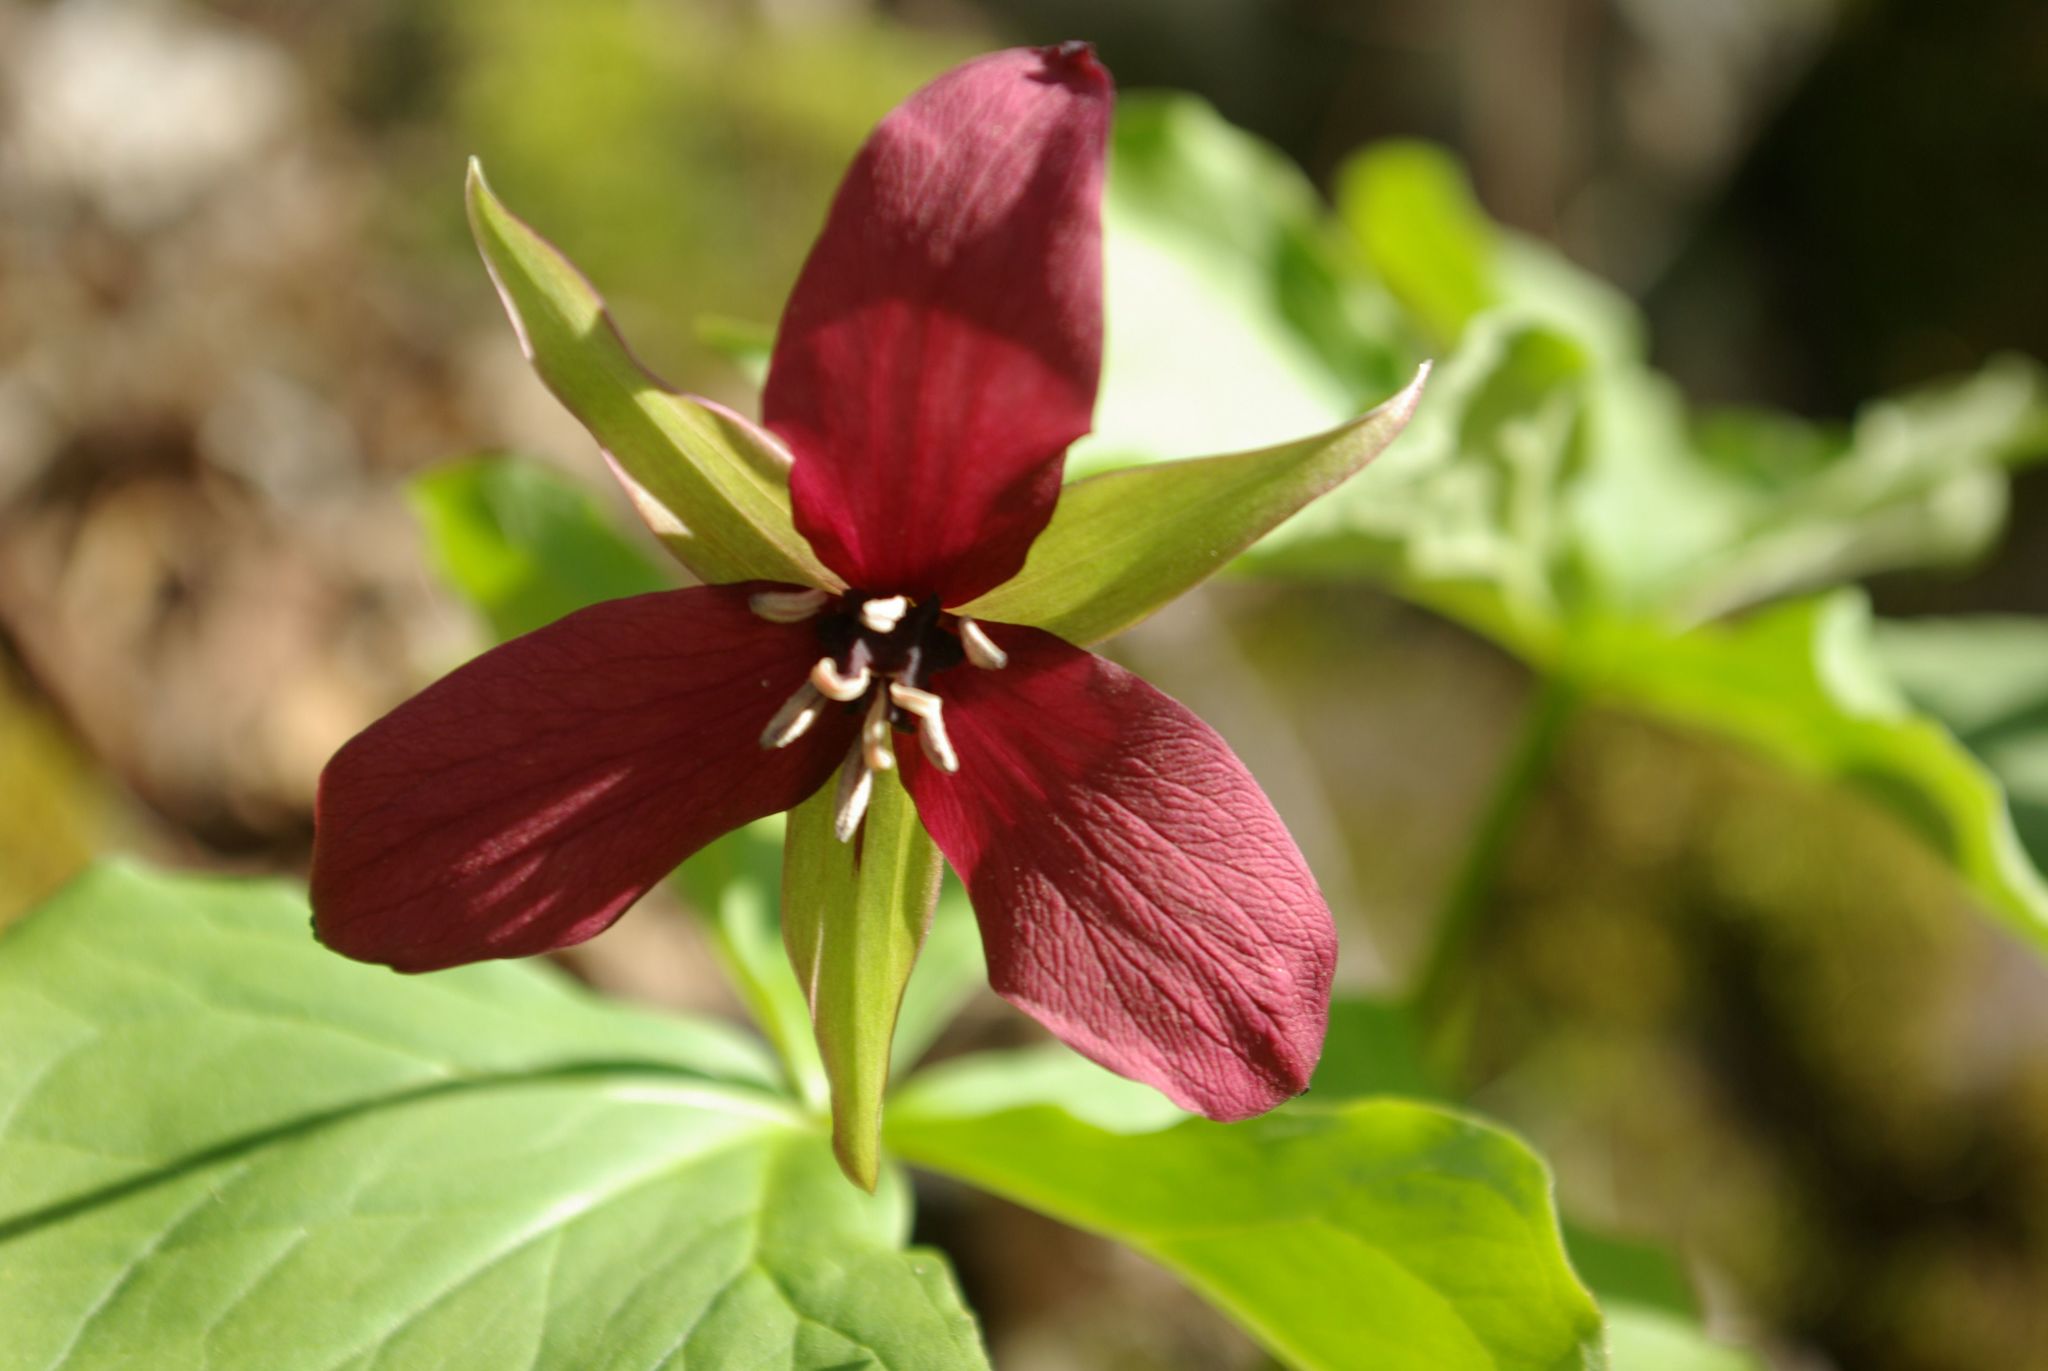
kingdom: Plantae
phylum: Tracheophyta
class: Liliopsida
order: Liliales
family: Melanthiaceae
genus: Trillium
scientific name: Trillium erectum
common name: Purple trillium
